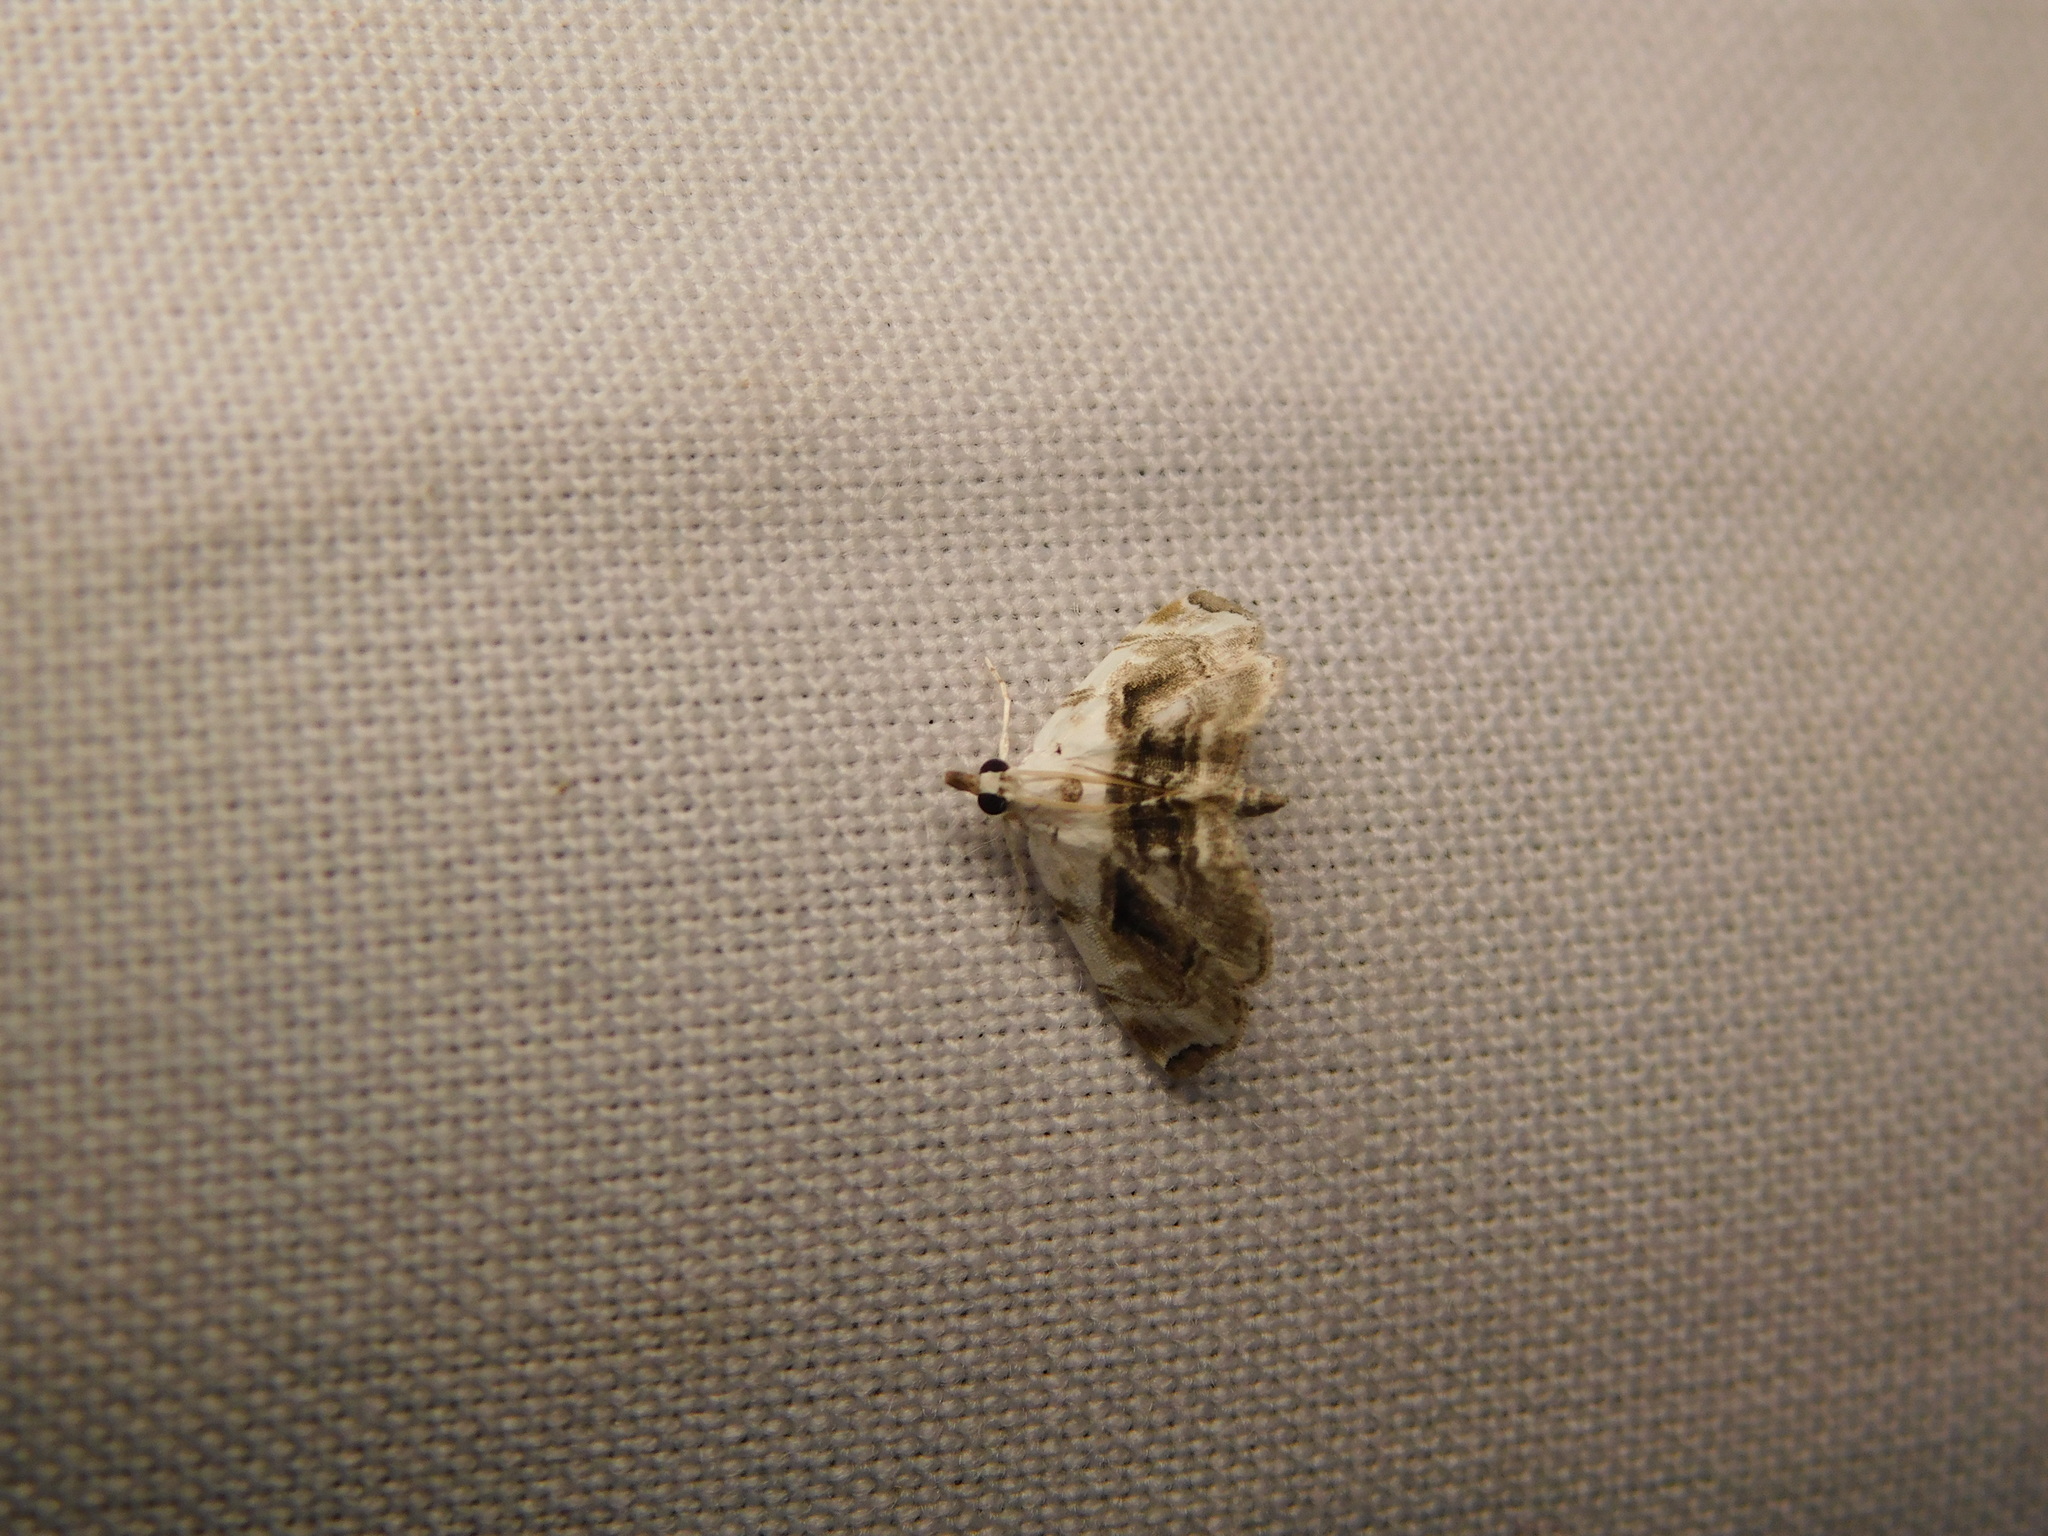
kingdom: Animalia
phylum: Arthropoda
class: Insecta
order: Lepidoptera
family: Crambidae
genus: Trichophysetis
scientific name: Trichophysetis umbrifusalis
